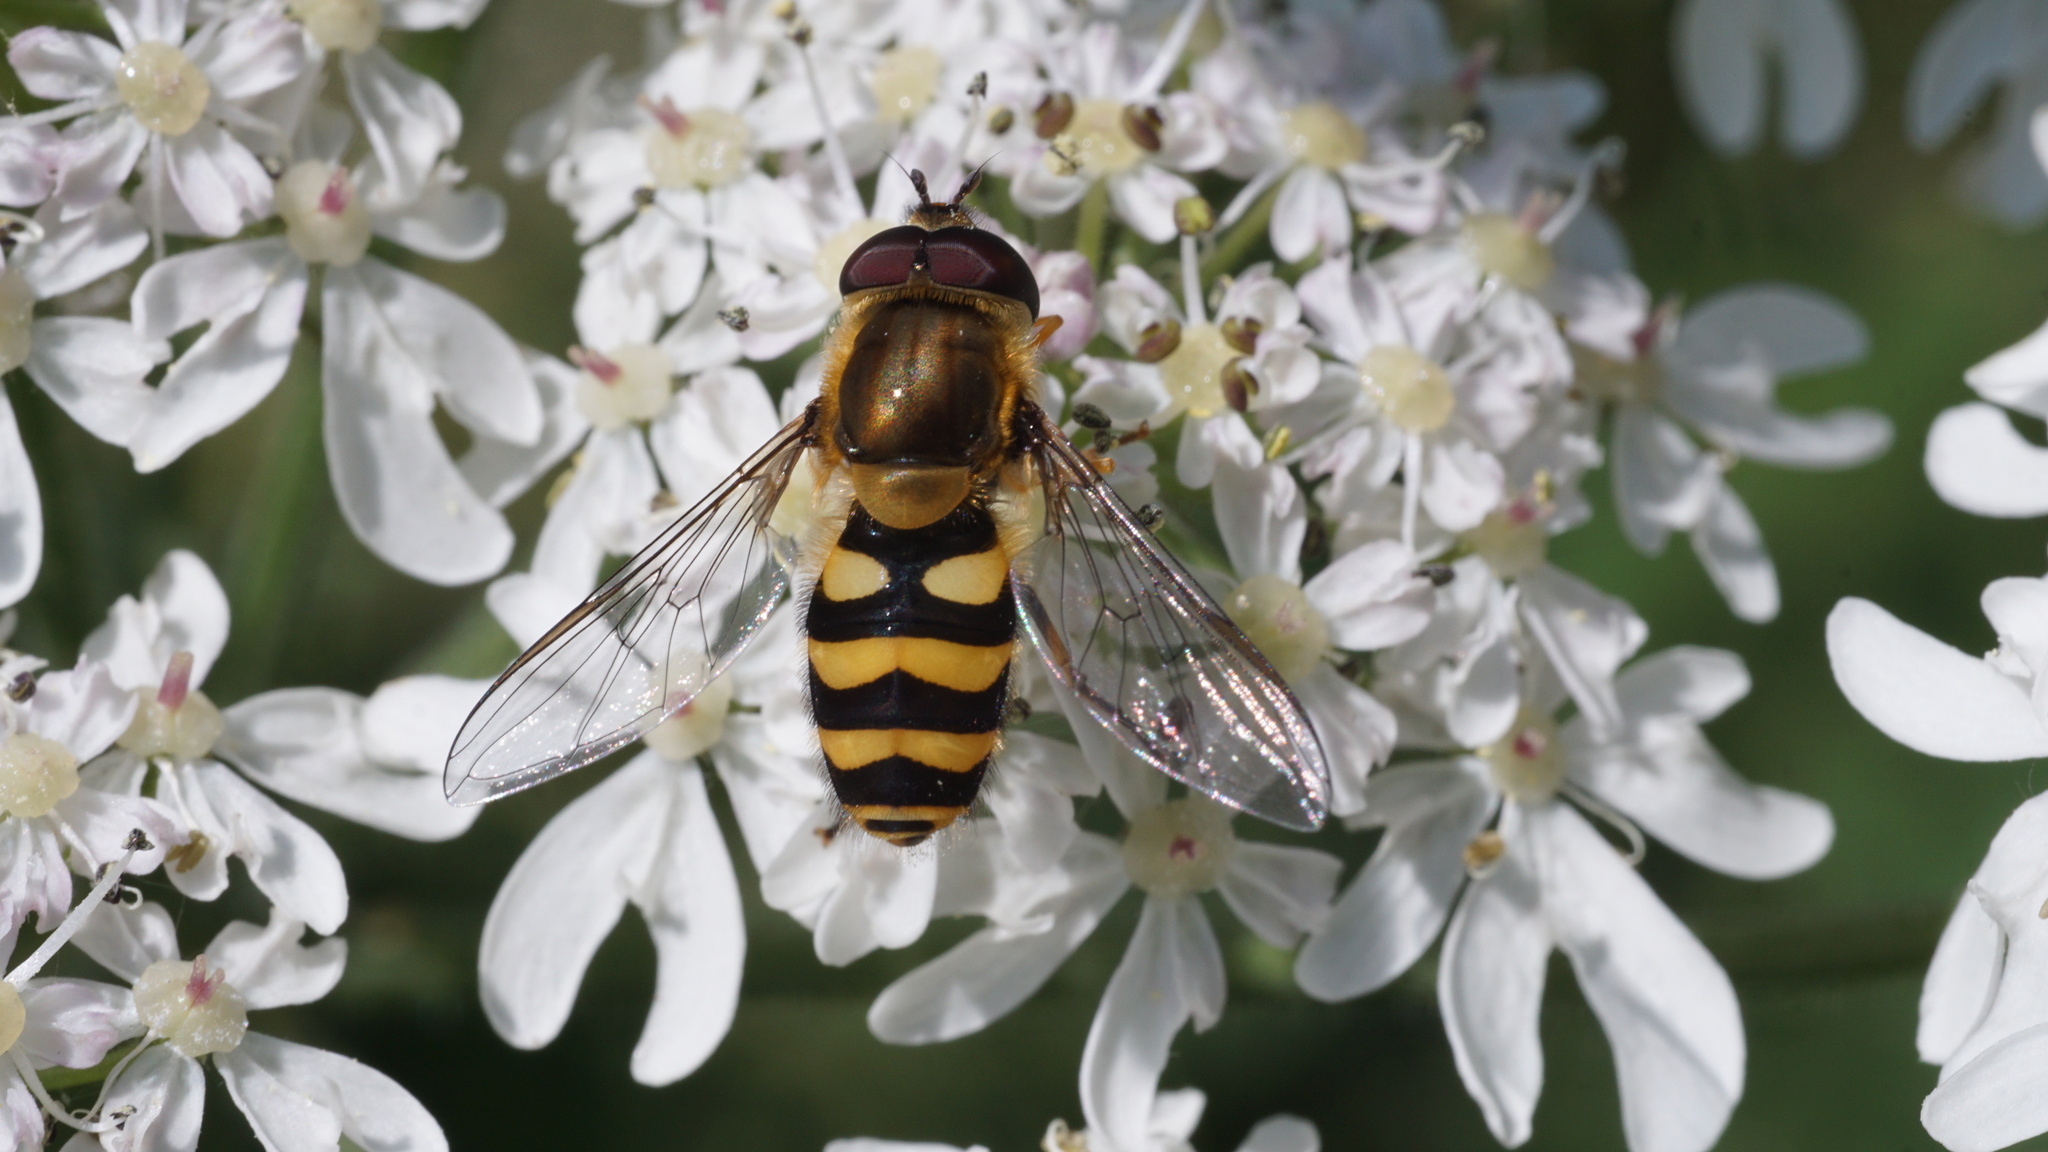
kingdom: Animalia
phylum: Arthropoda
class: Insecta
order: Diptera
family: Syrphidae
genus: Syrphus
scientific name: Syrphus
